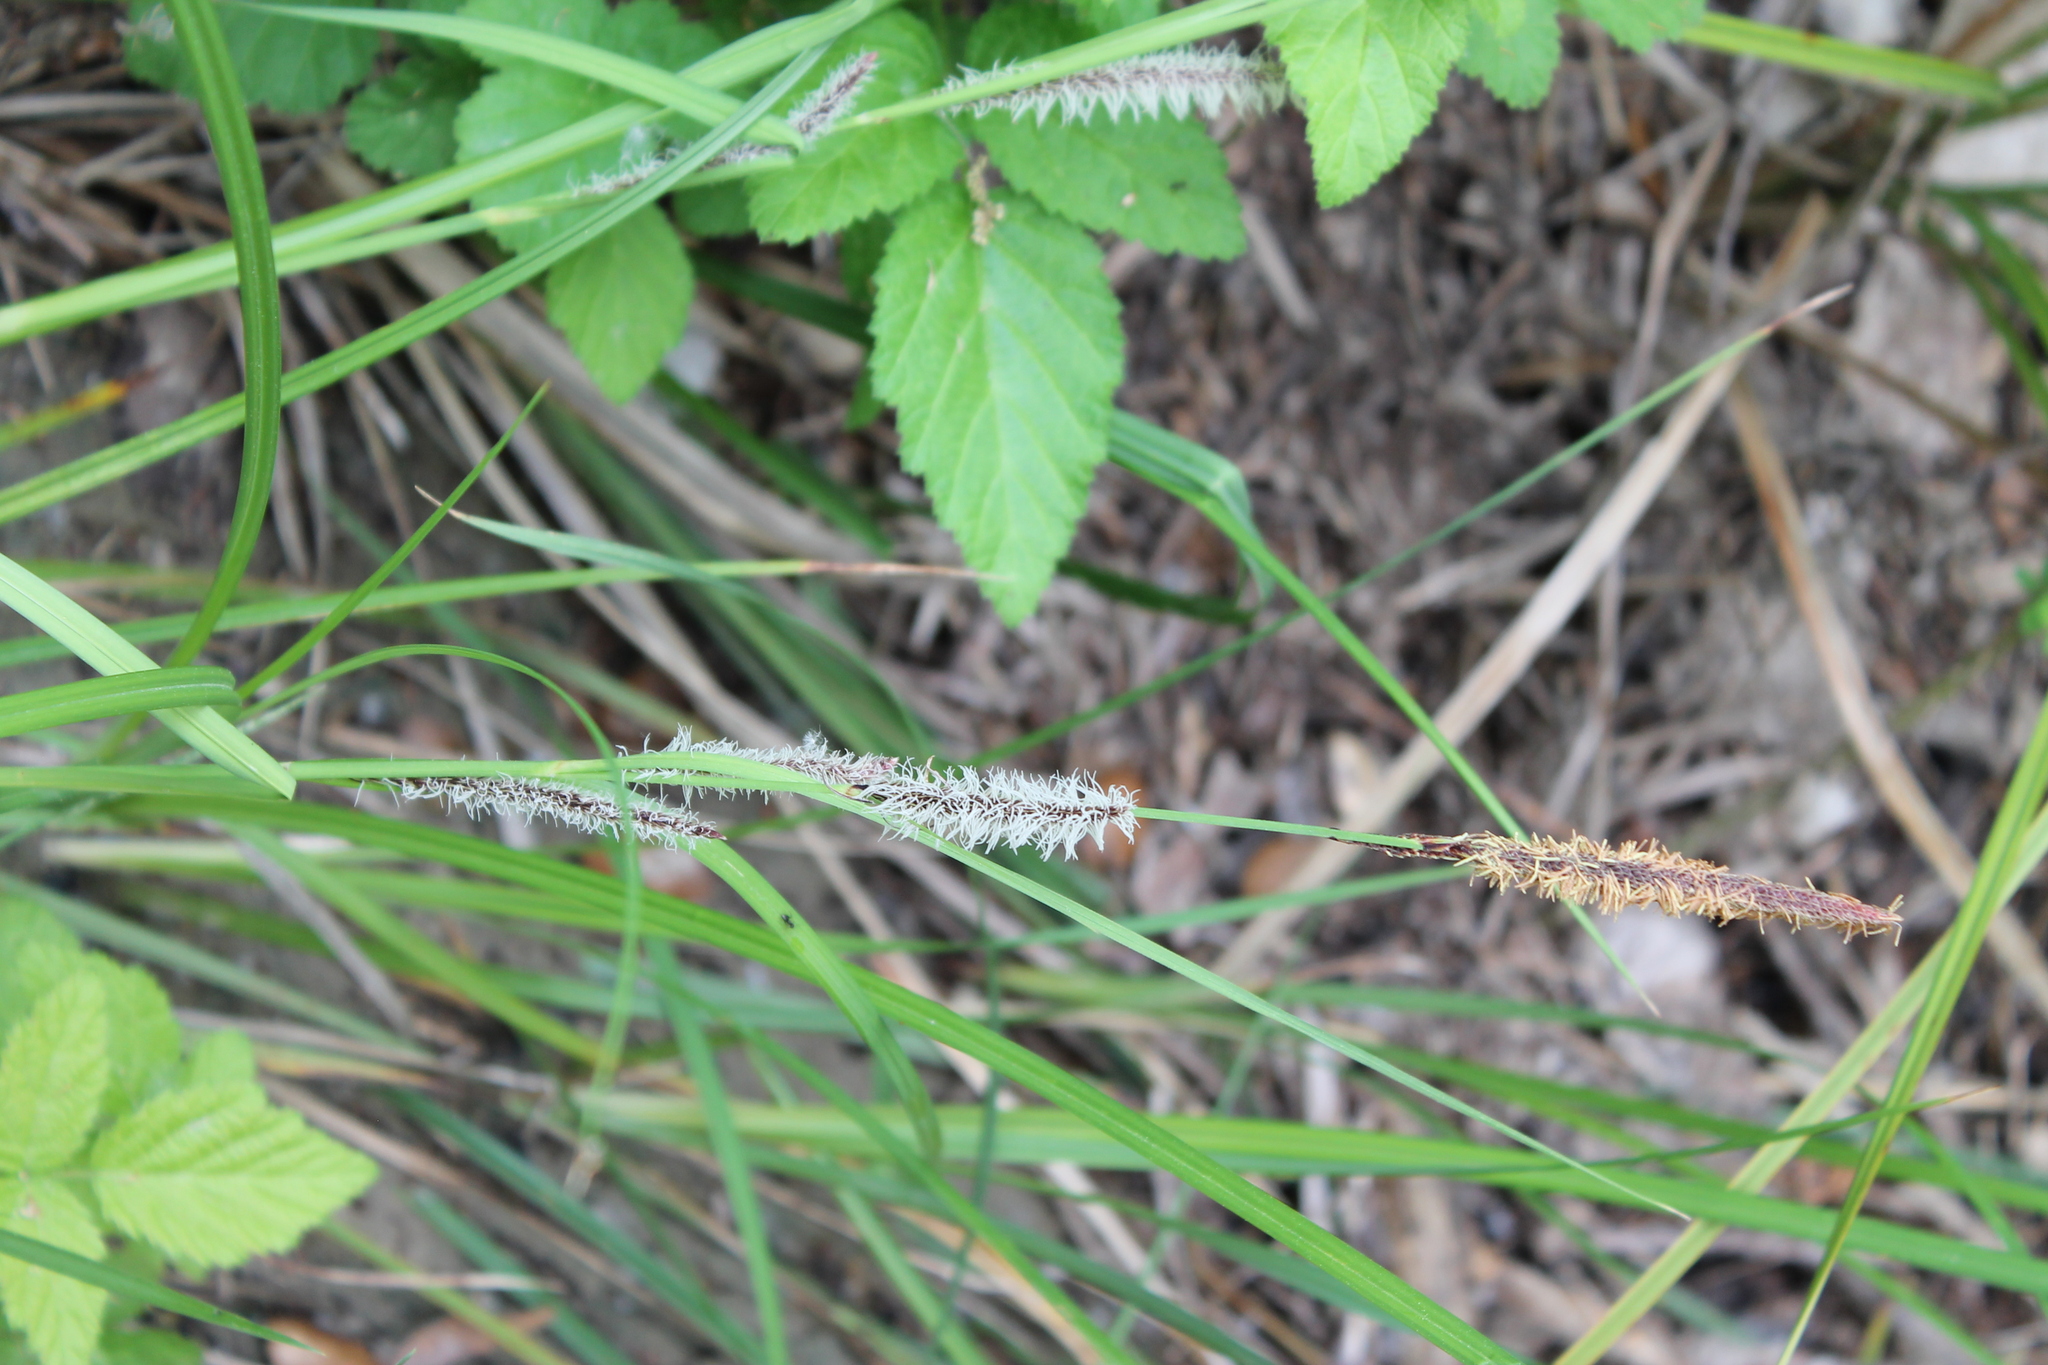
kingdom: Plantae
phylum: Tracheophyta
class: Liliopsida
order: Poales
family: Cyperaceae
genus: Carex
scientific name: Carex barbarae
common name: Santa barbara sedge
